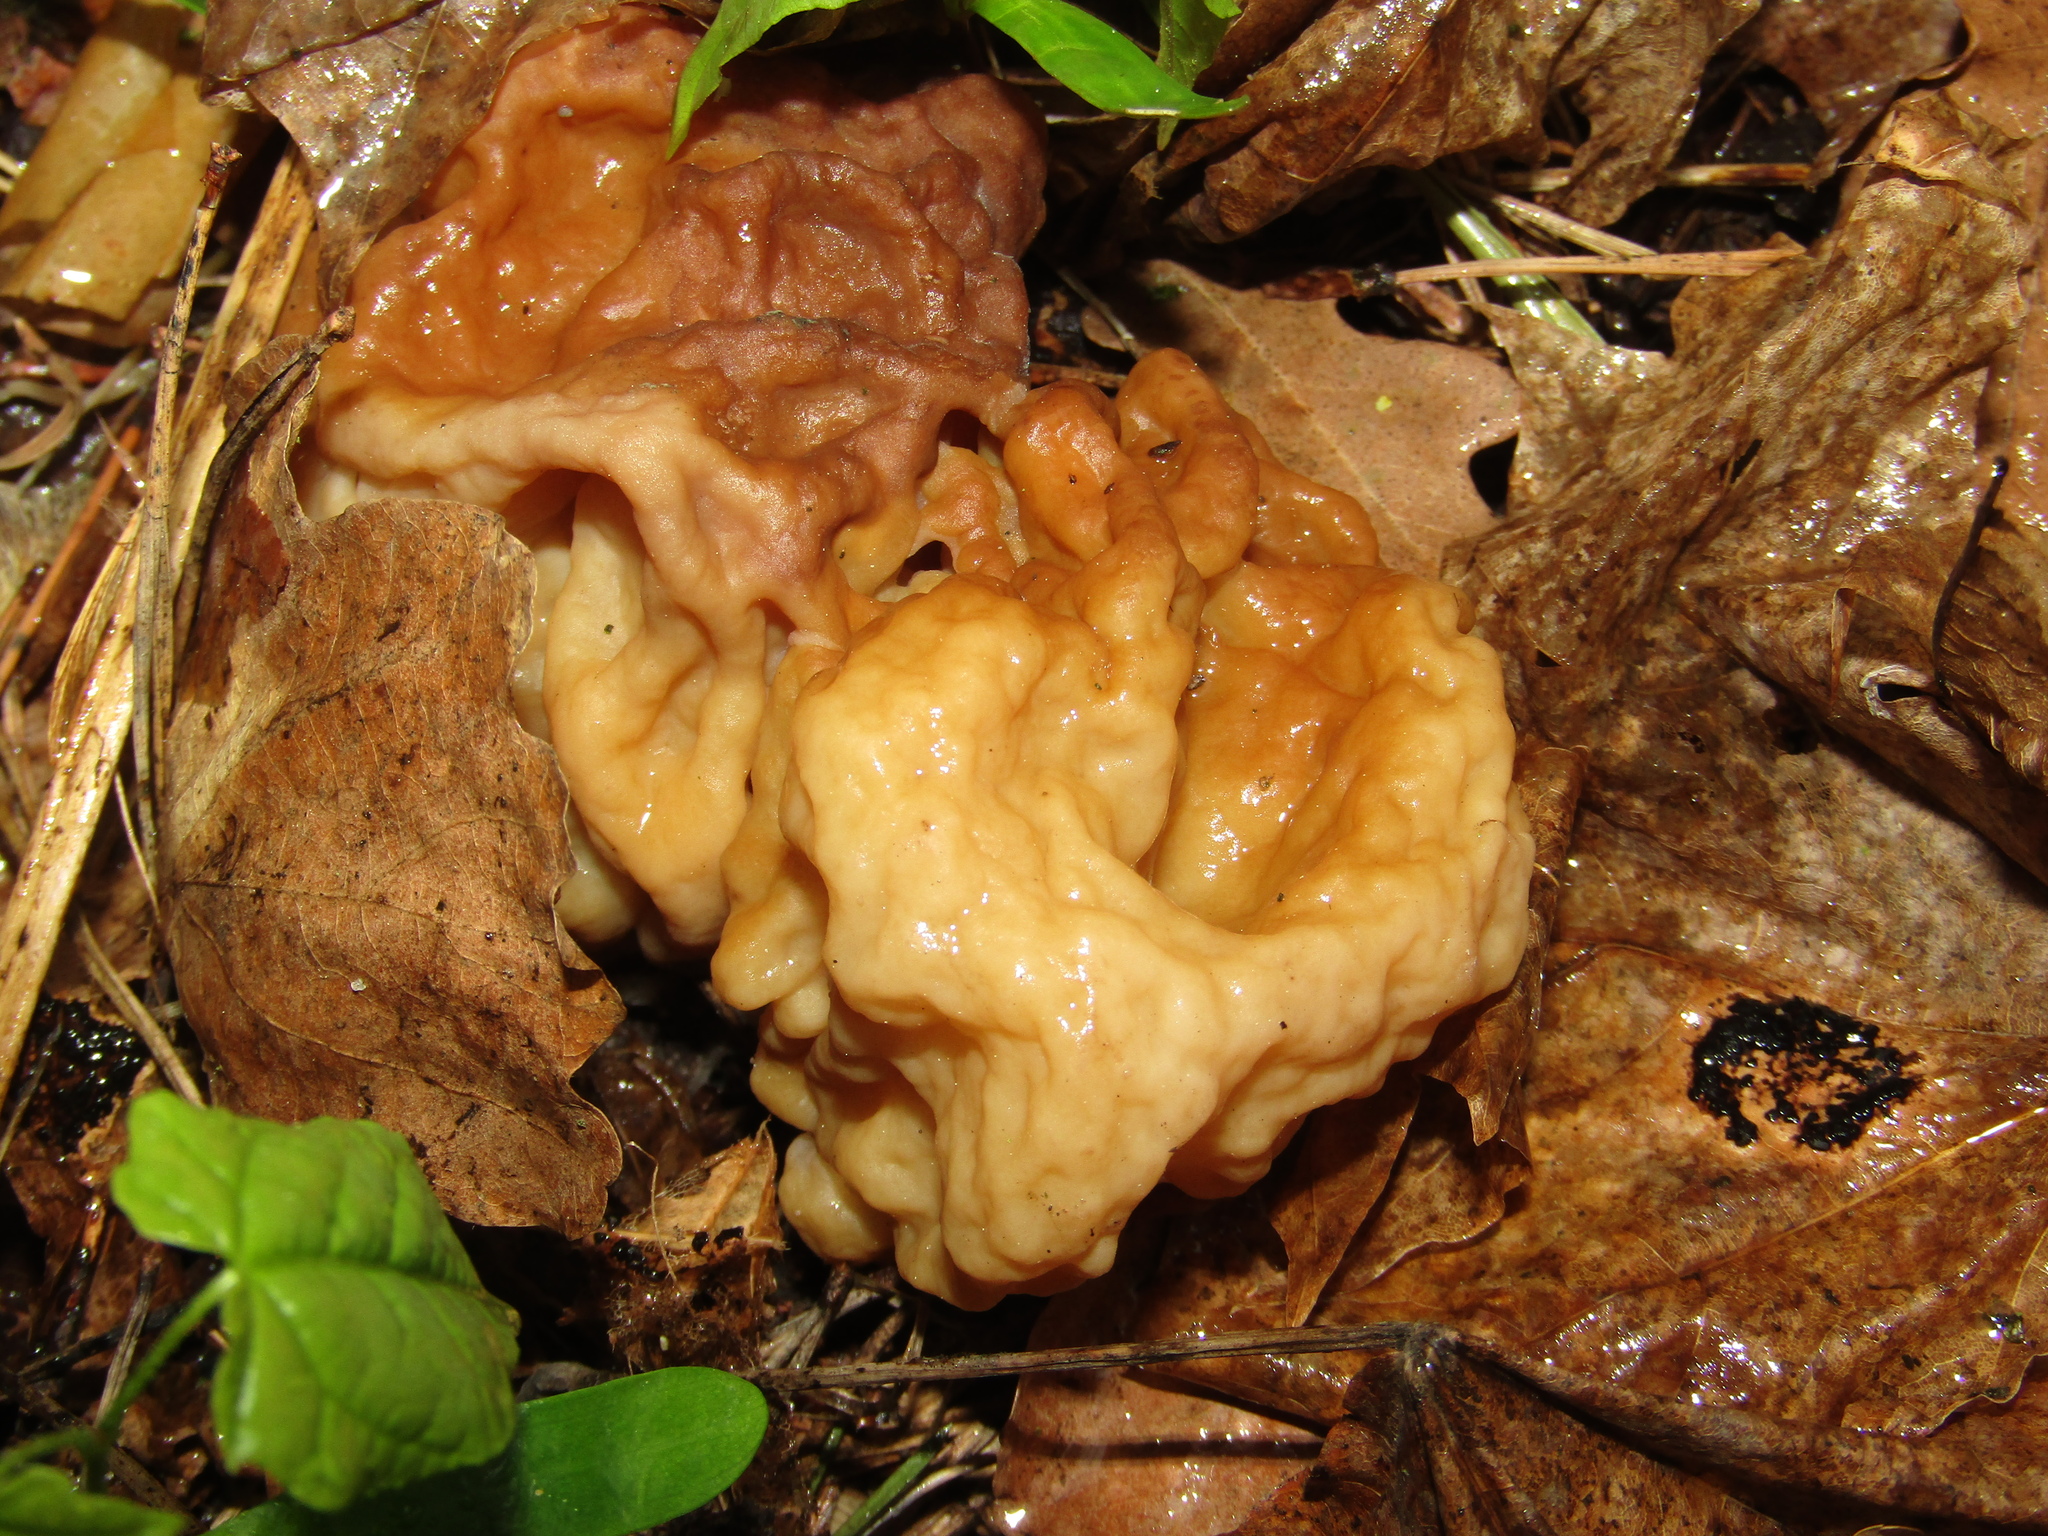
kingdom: Fungi
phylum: Ascomycota
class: Pezizomycetes
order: Pezizales
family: Discinaceae
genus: Gyromitra
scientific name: Gyromitra gigas
